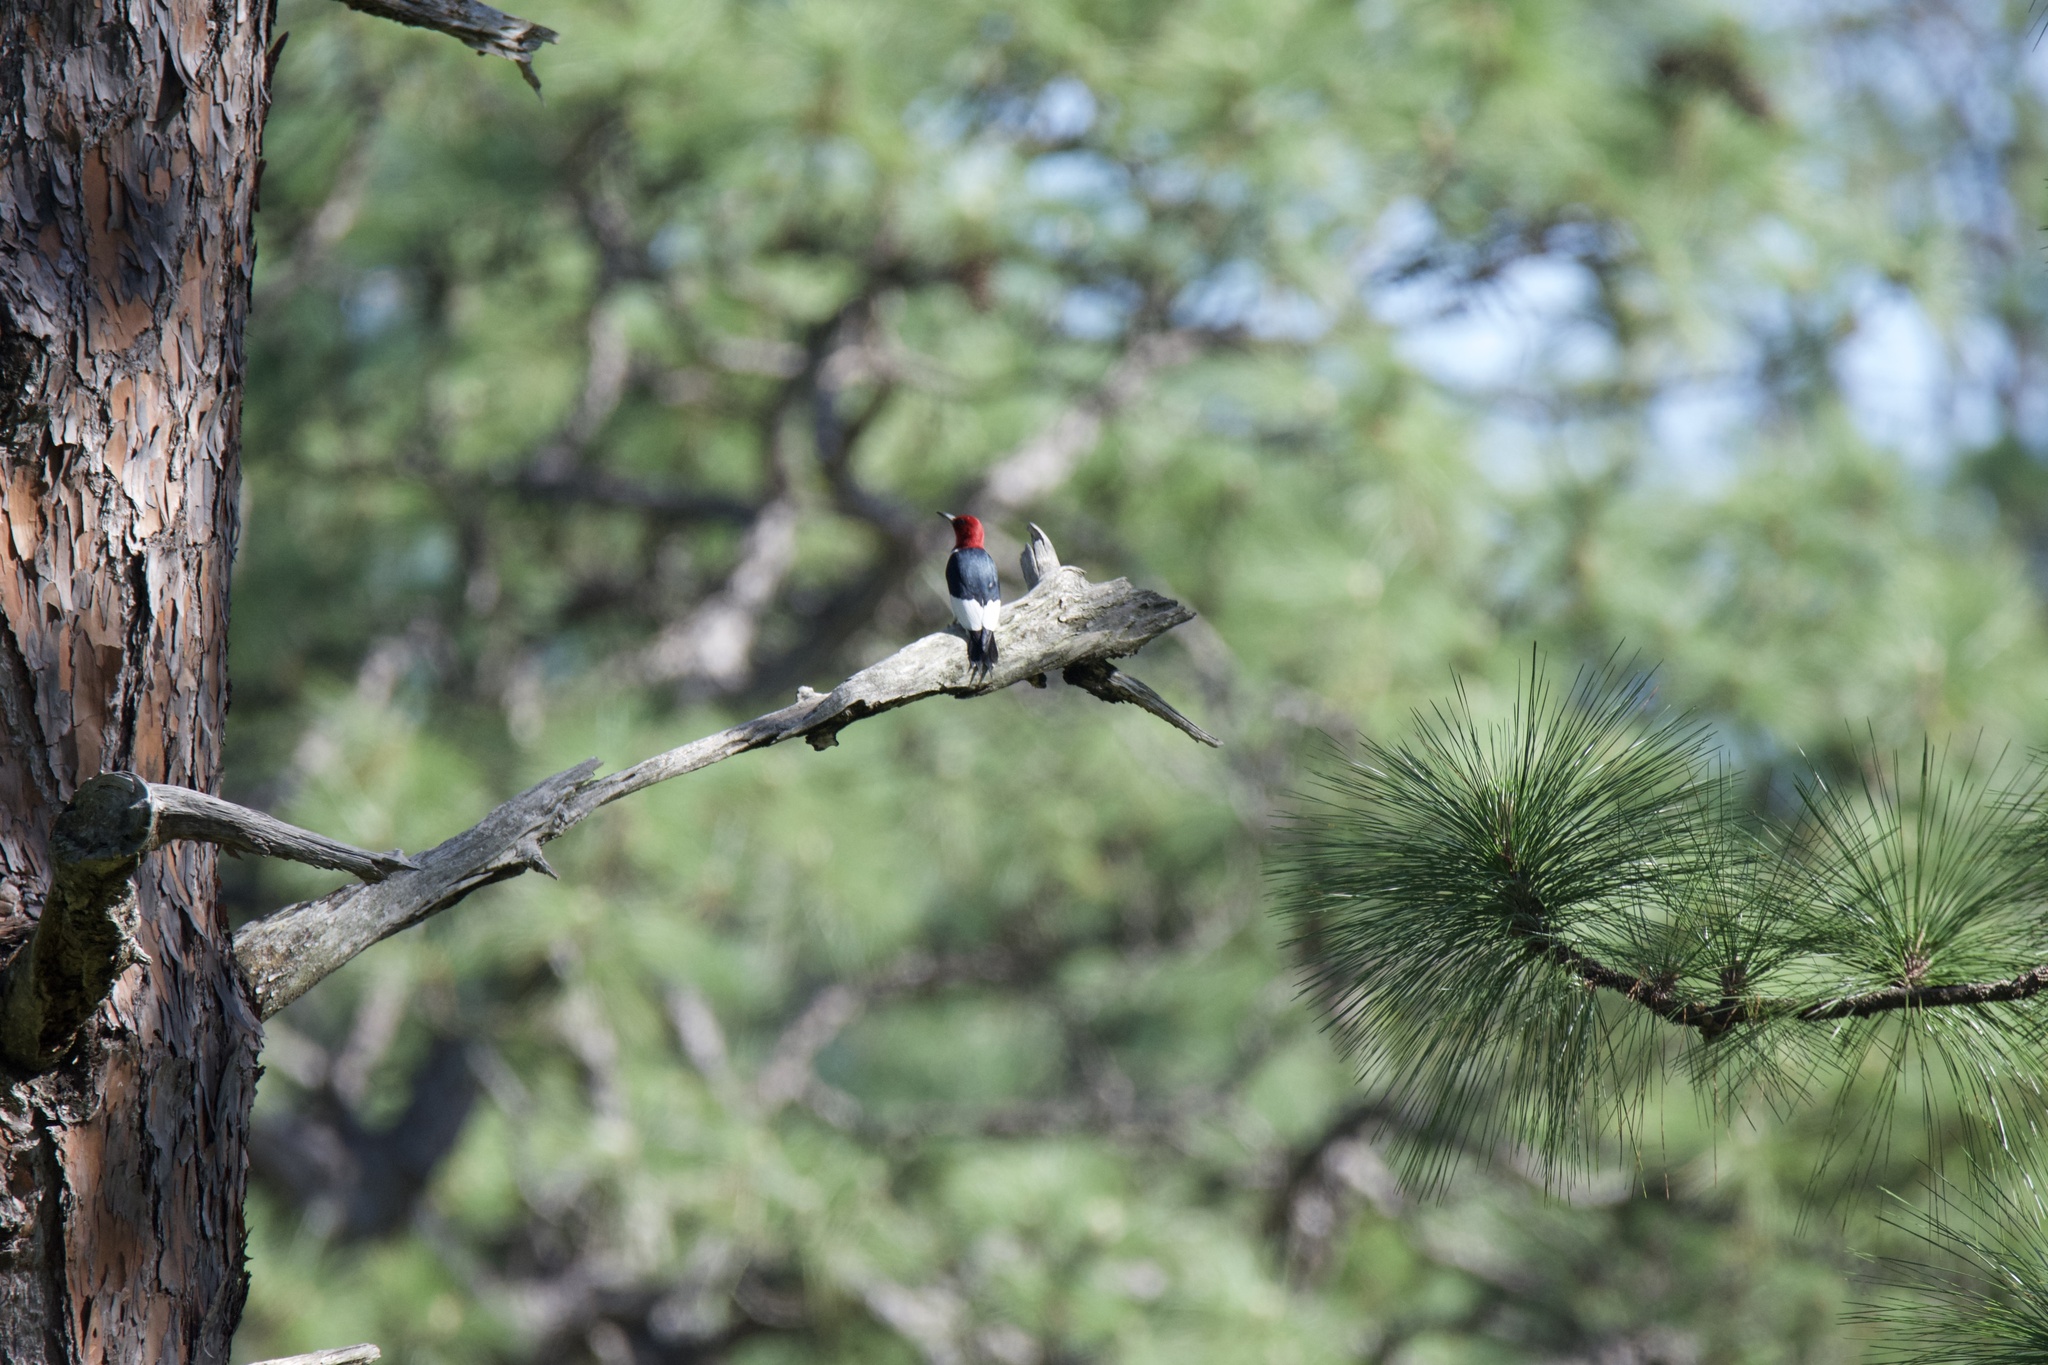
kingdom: Animalia
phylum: Chordata
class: Aves
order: Piciformes
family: Picidae
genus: Melanerpes
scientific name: Melanerpes erythrocephalus
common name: Red-headed woodpecker
